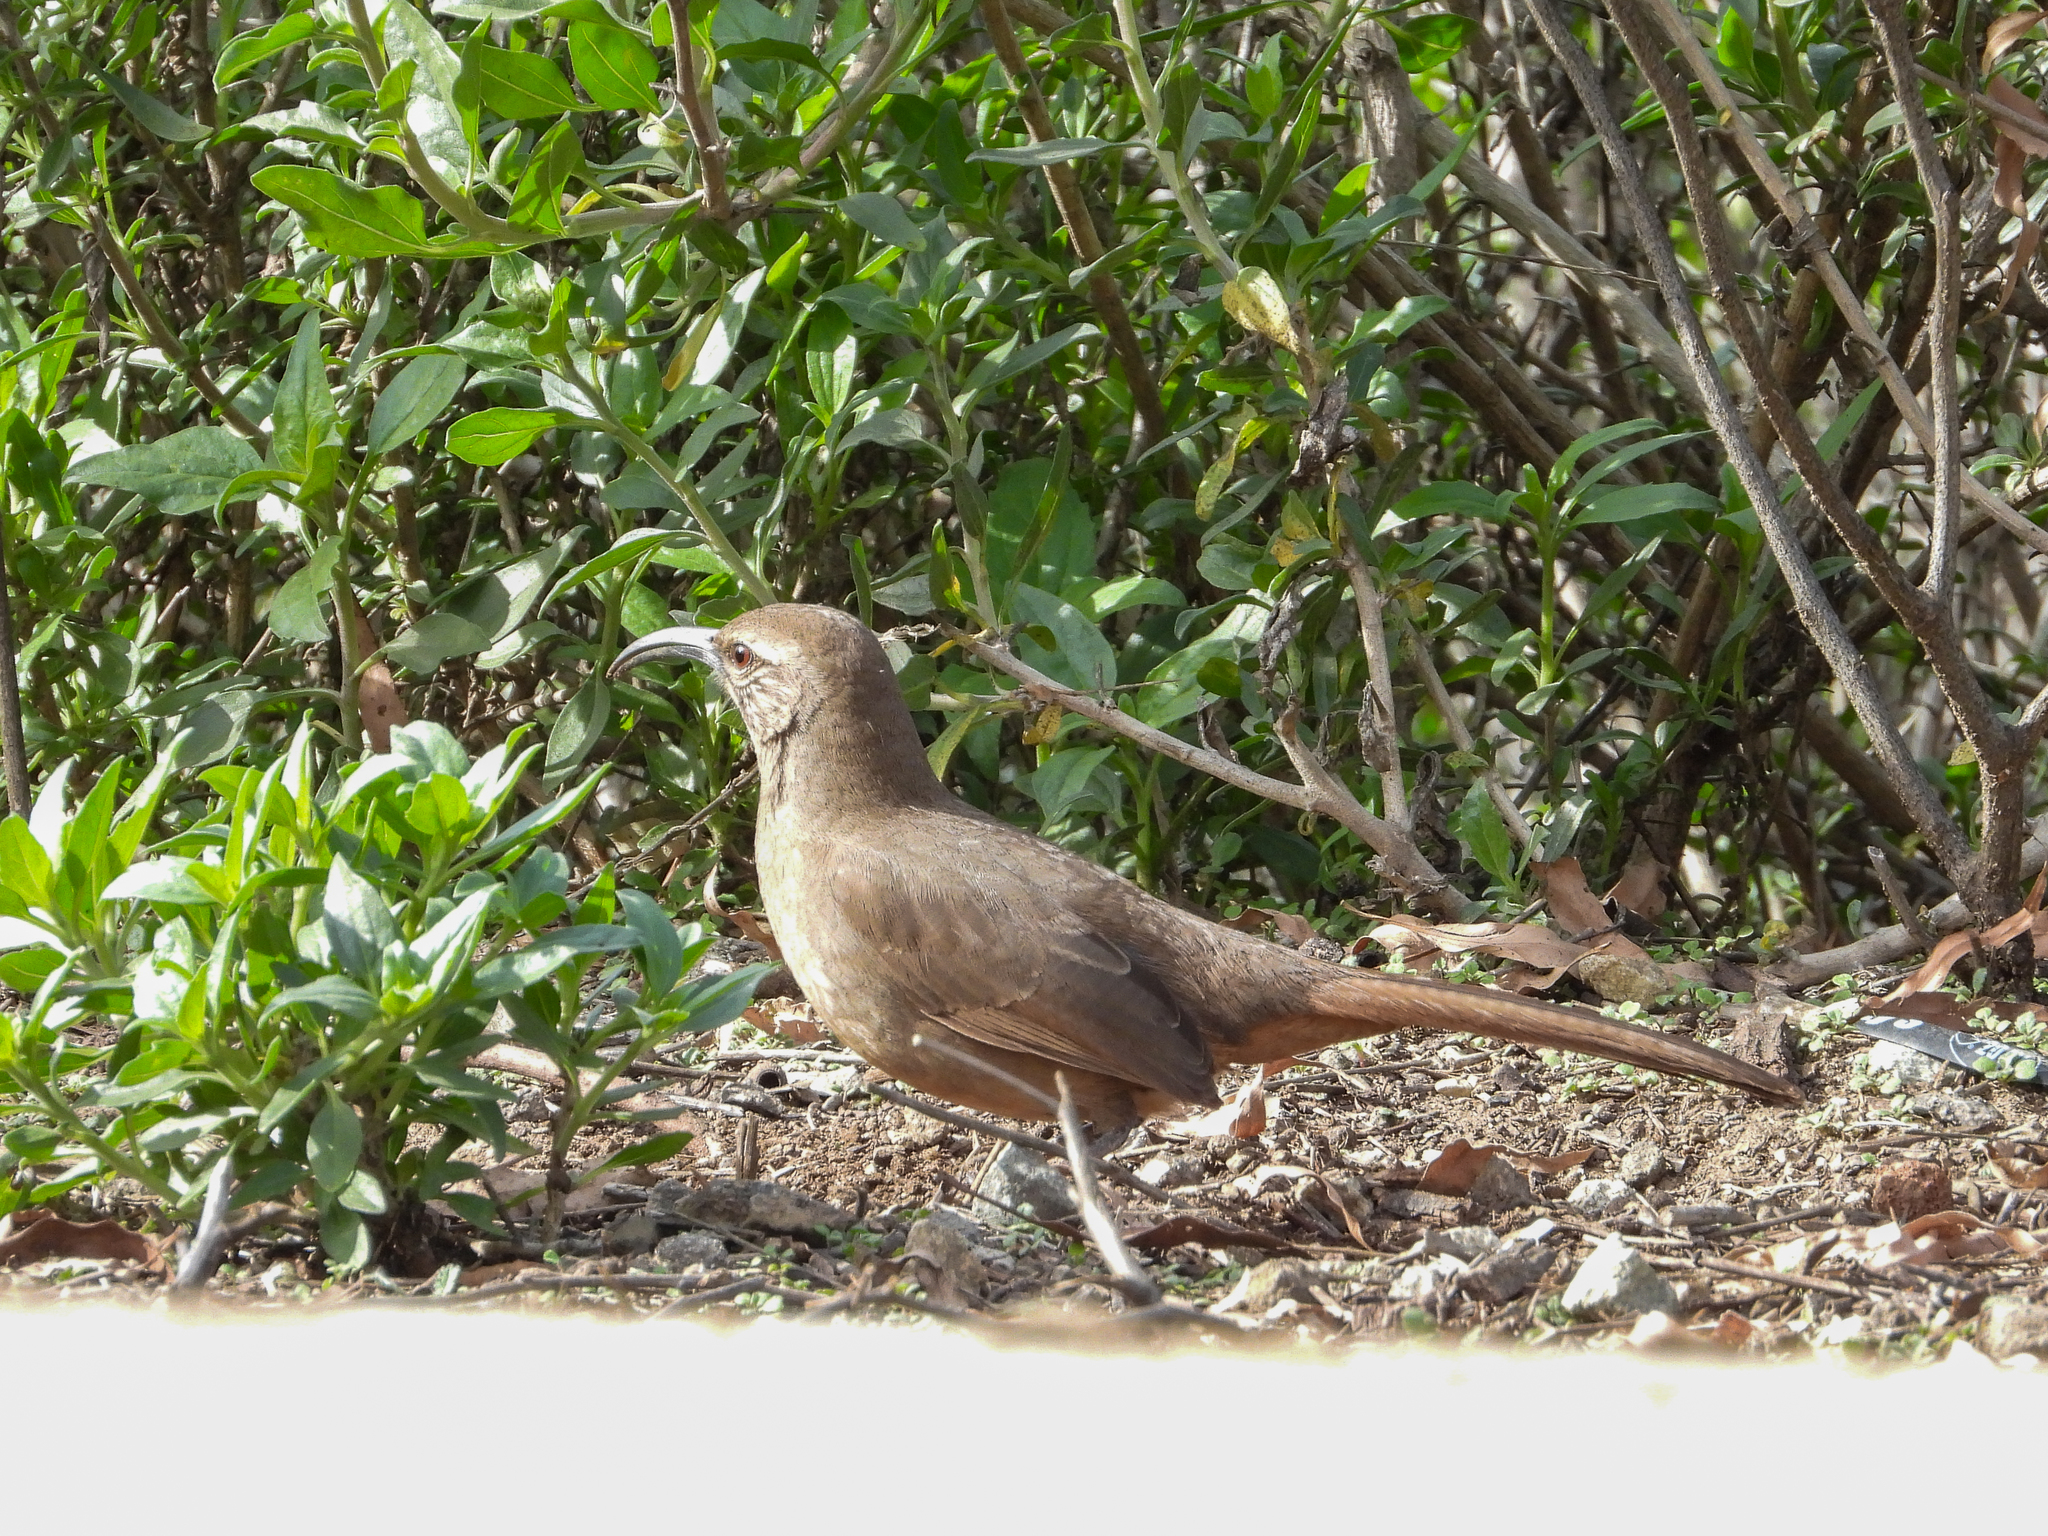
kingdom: Animalia
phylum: Chordata
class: Aves
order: Passeriformes
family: Mimidae
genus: Toxostoma
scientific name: Toxostoma redivivum
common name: California thrasher
